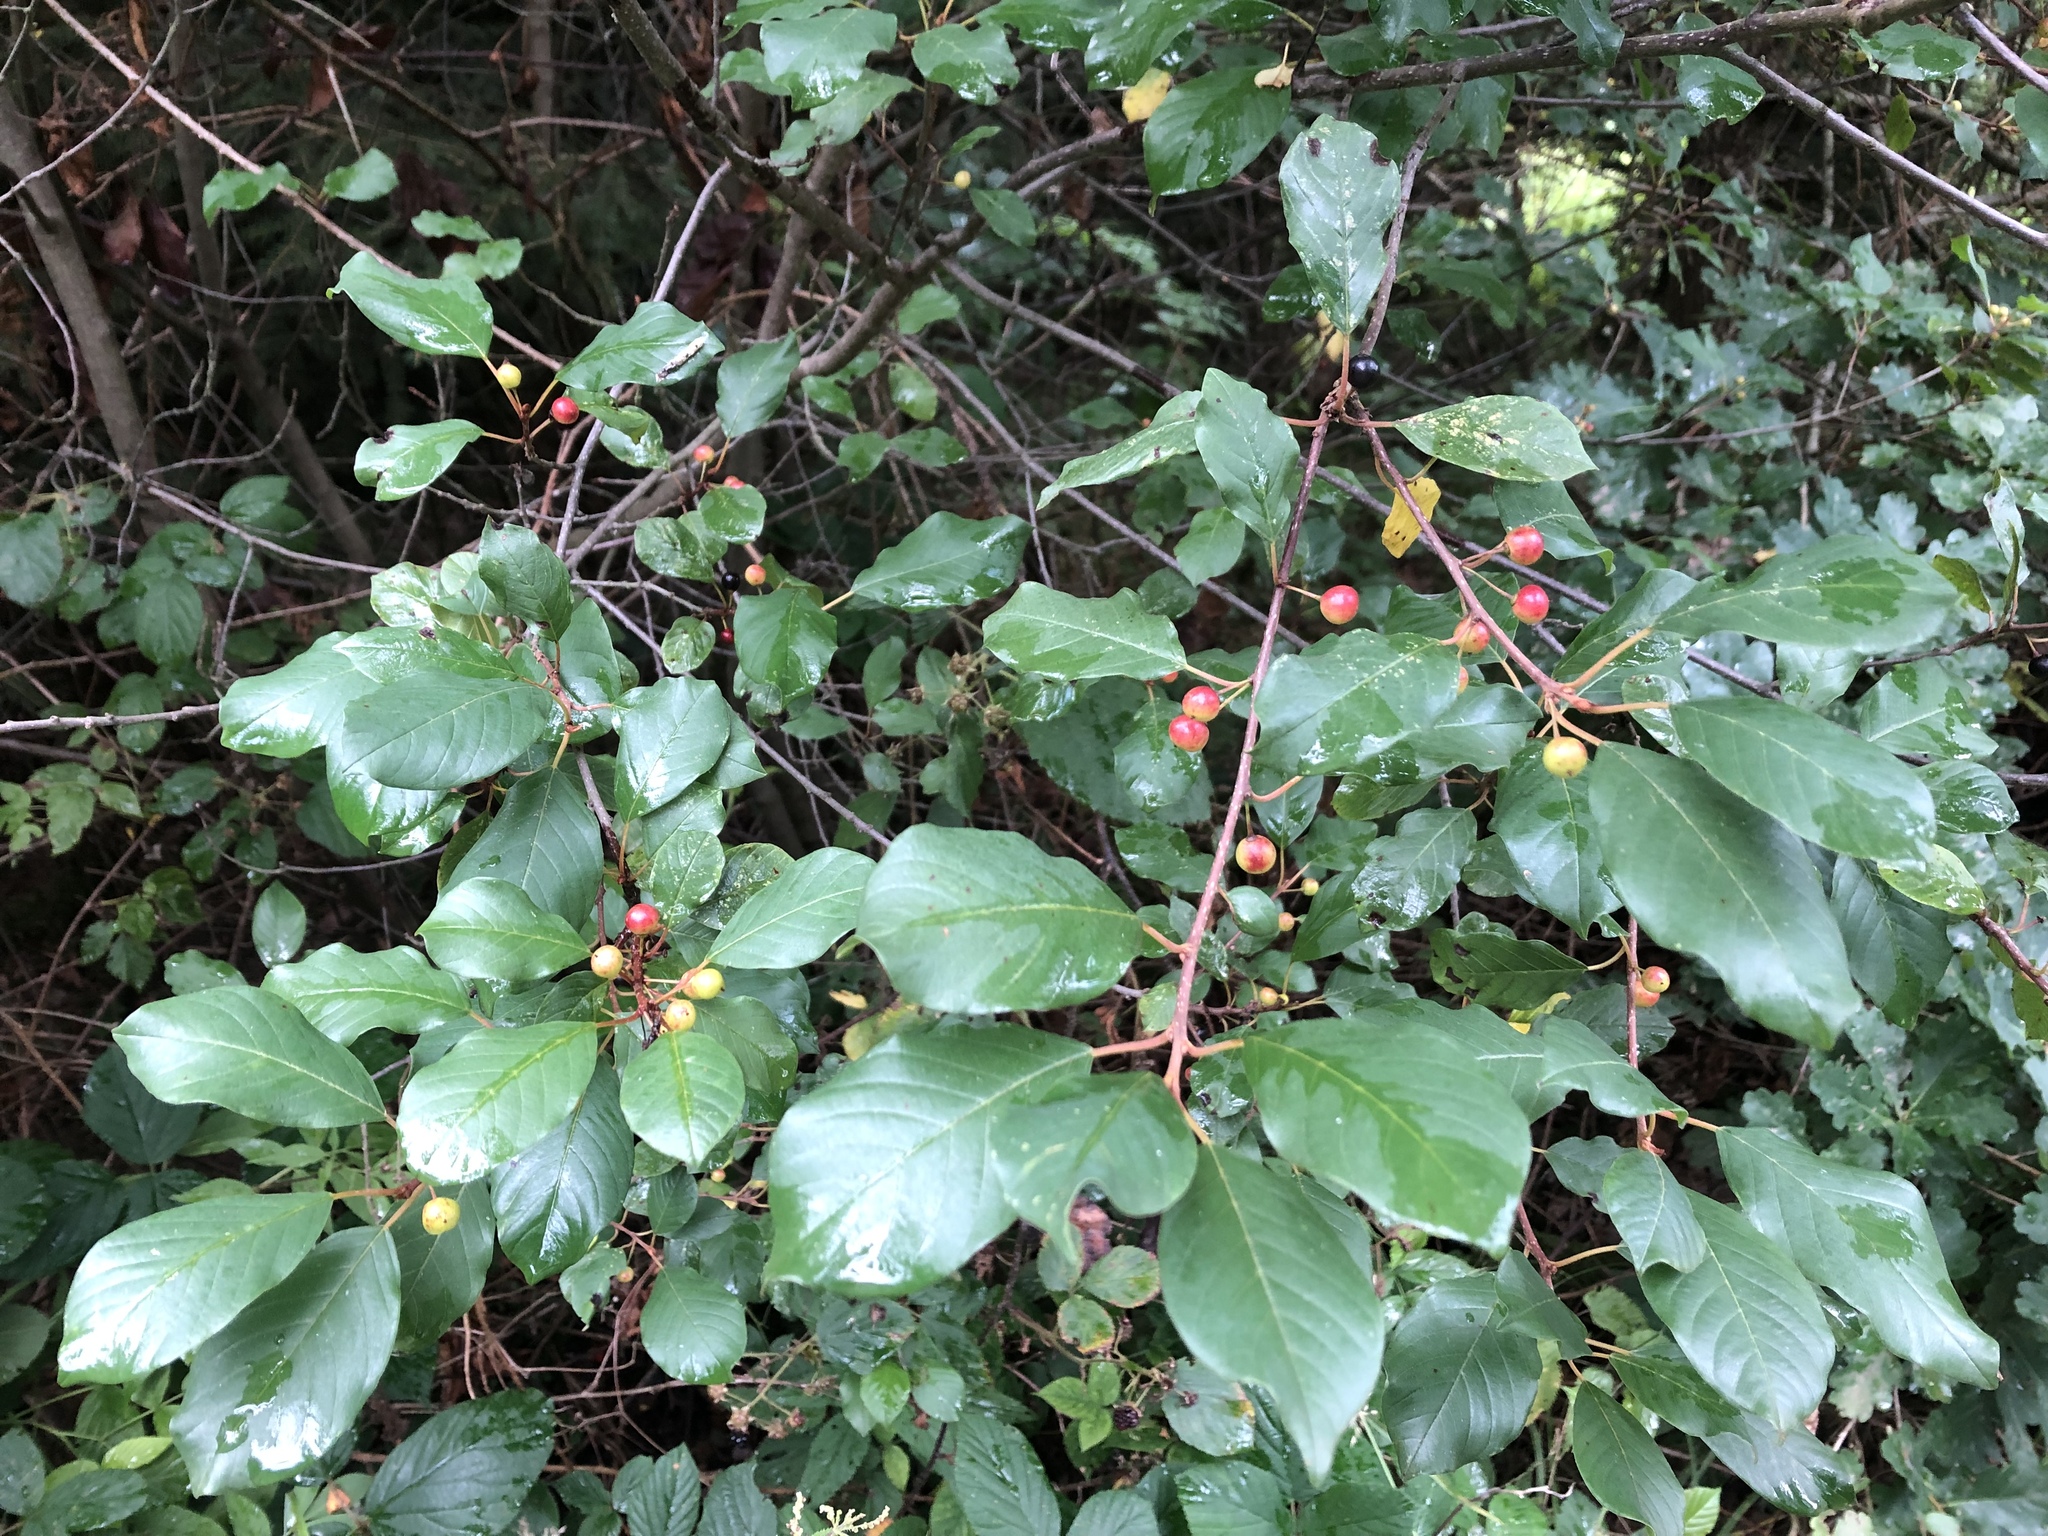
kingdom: Plantae
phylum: Tracheophyta
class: Magnoliopsida
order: Rosales
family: Rhamnaceae
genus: Frangula
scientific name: Frangula alnus
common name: Alder buckthorn
